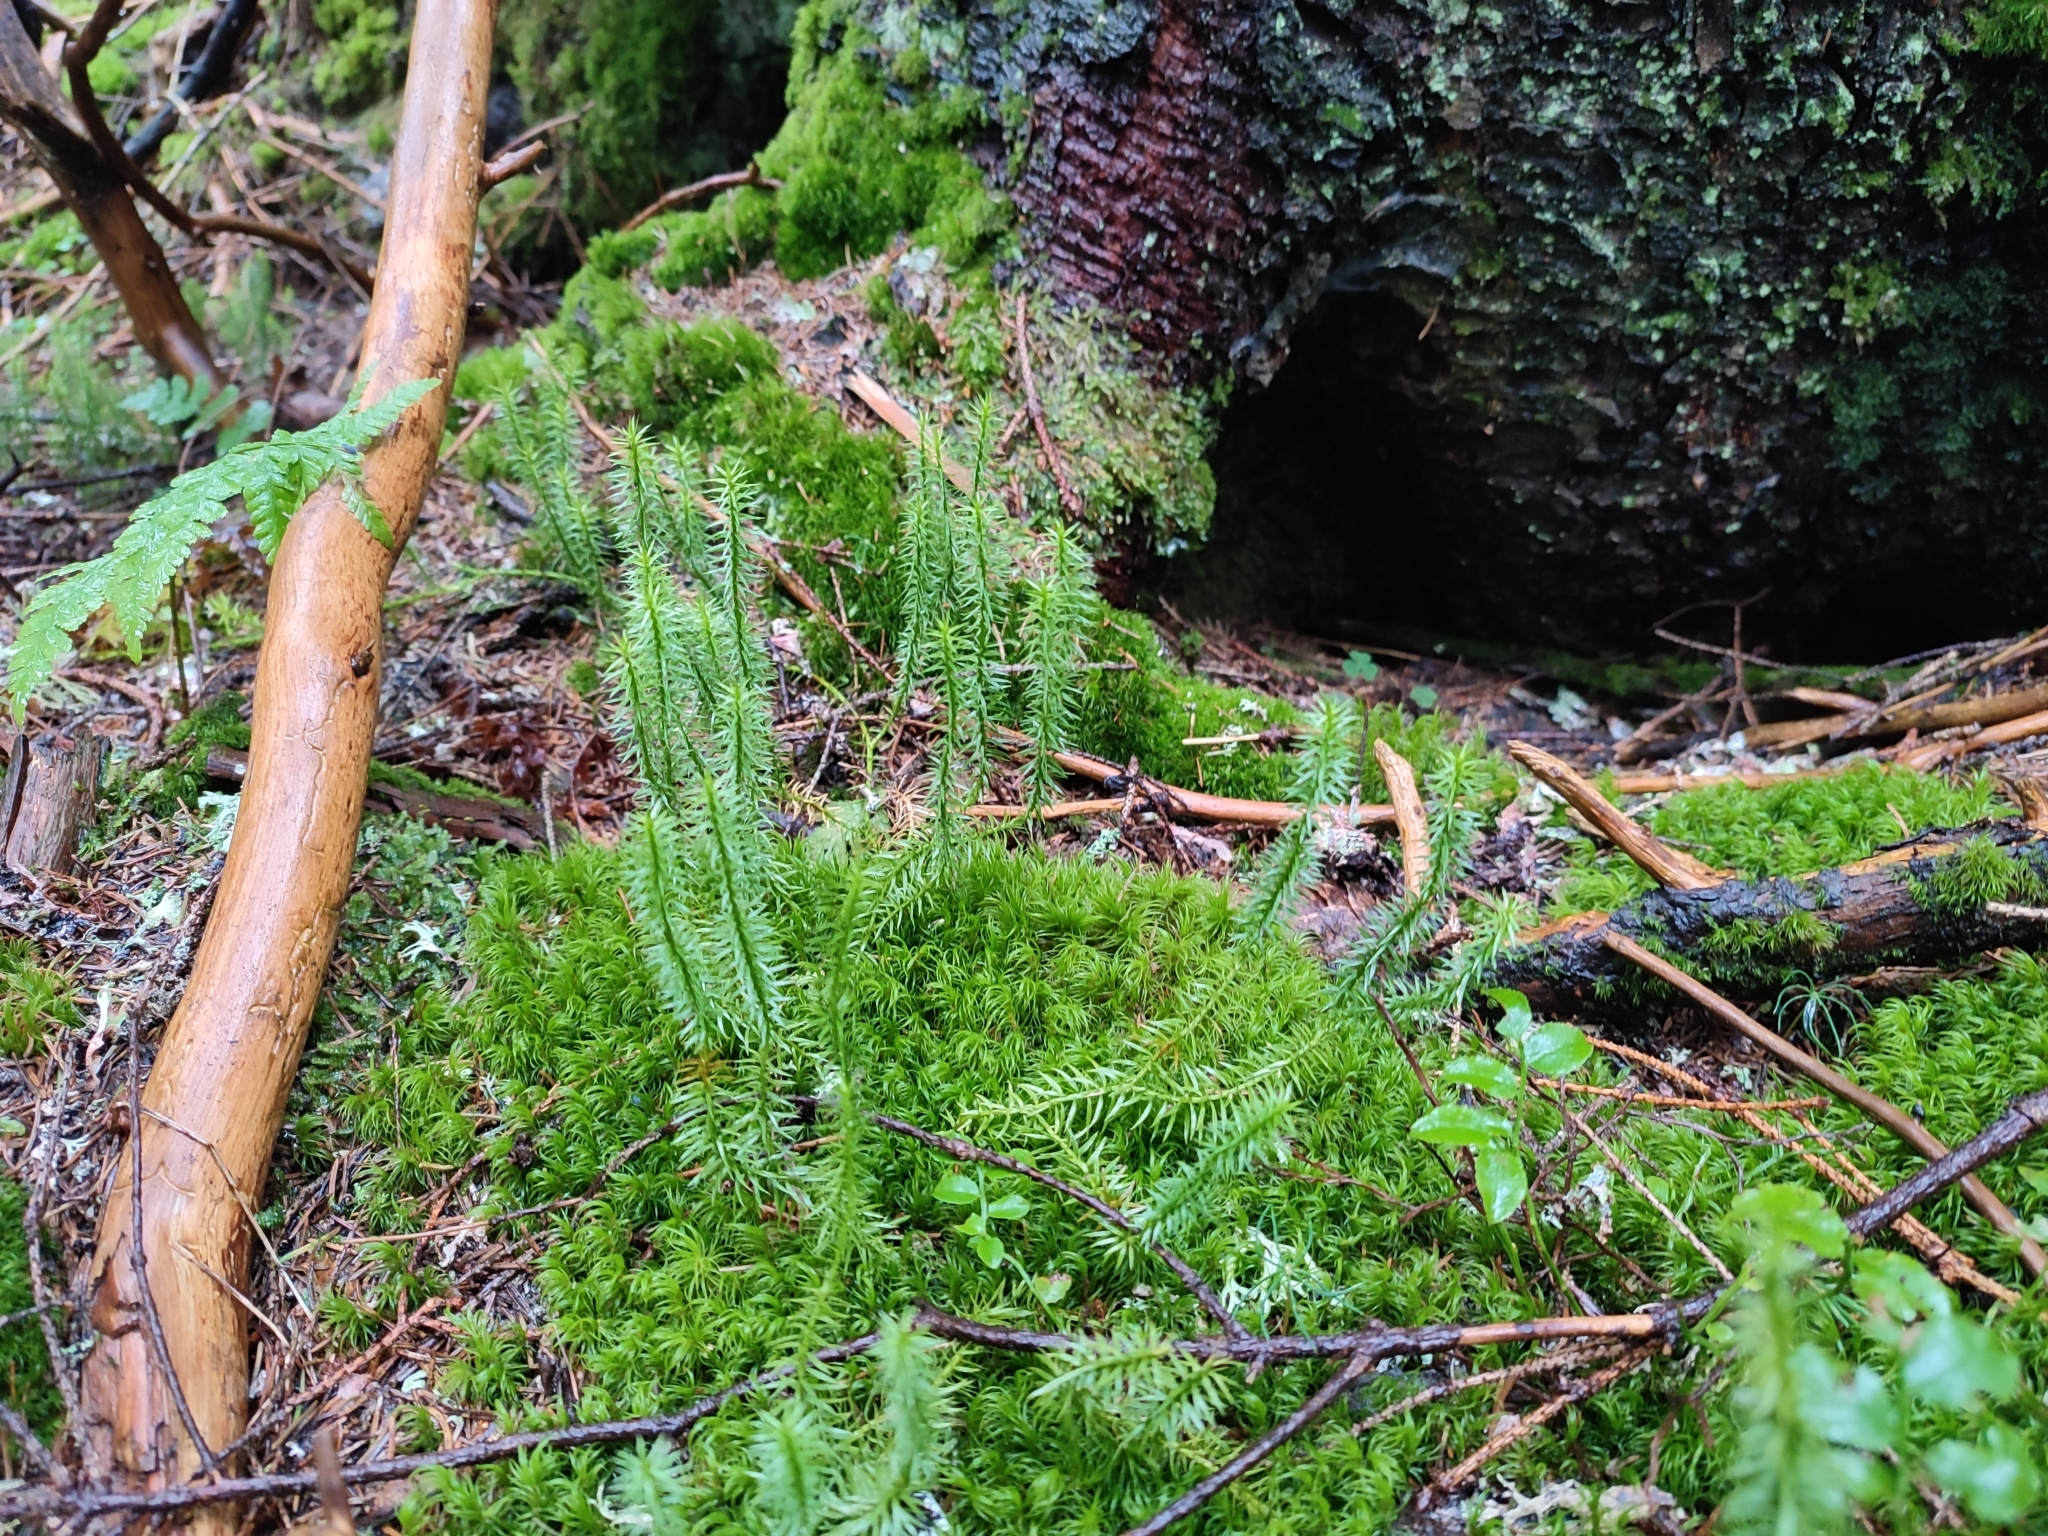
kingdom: Plantae
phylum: Tracheophyta
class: Lycopodiopsida
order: Lycopodiales
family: Lycopodiaceae
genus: Spinulum
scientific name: Spinulum annotinum
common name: Interrupted club-moss
